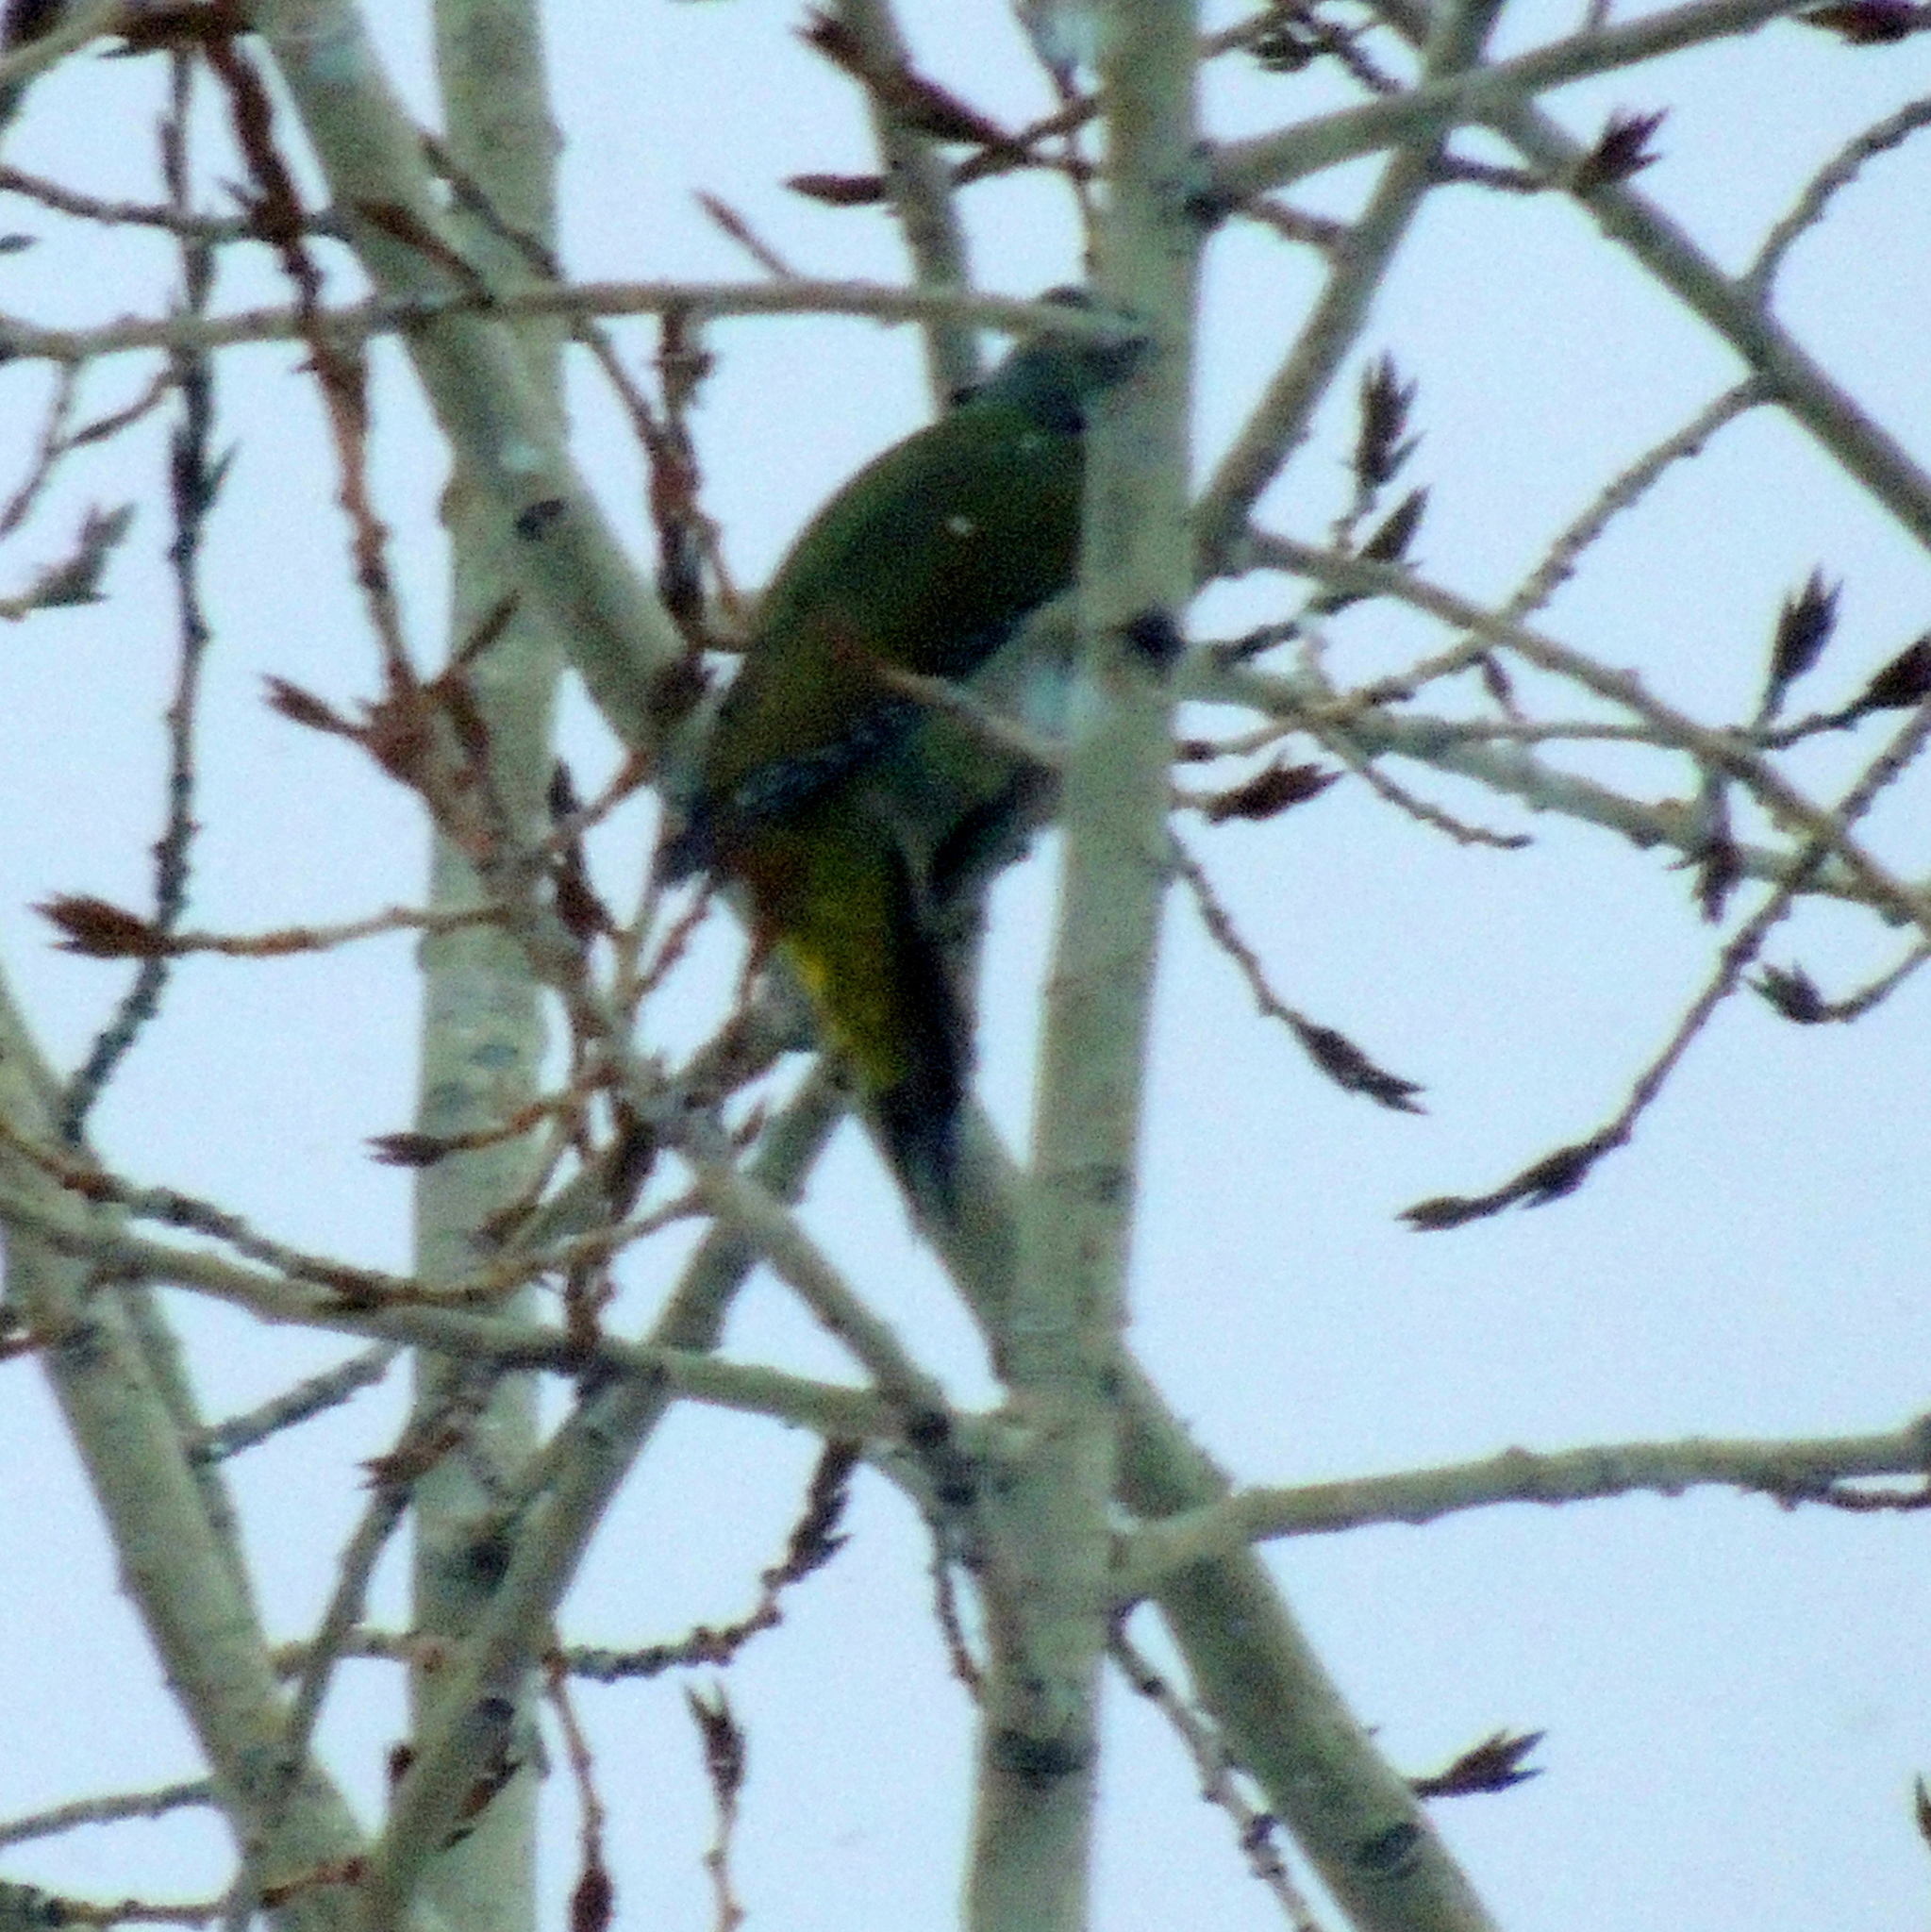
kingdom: Animalia
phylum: Chordata
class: Aves
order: Piciformes
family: Picidae
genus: Picus
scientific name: Picus canus
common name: Grey-headed woodpecker
